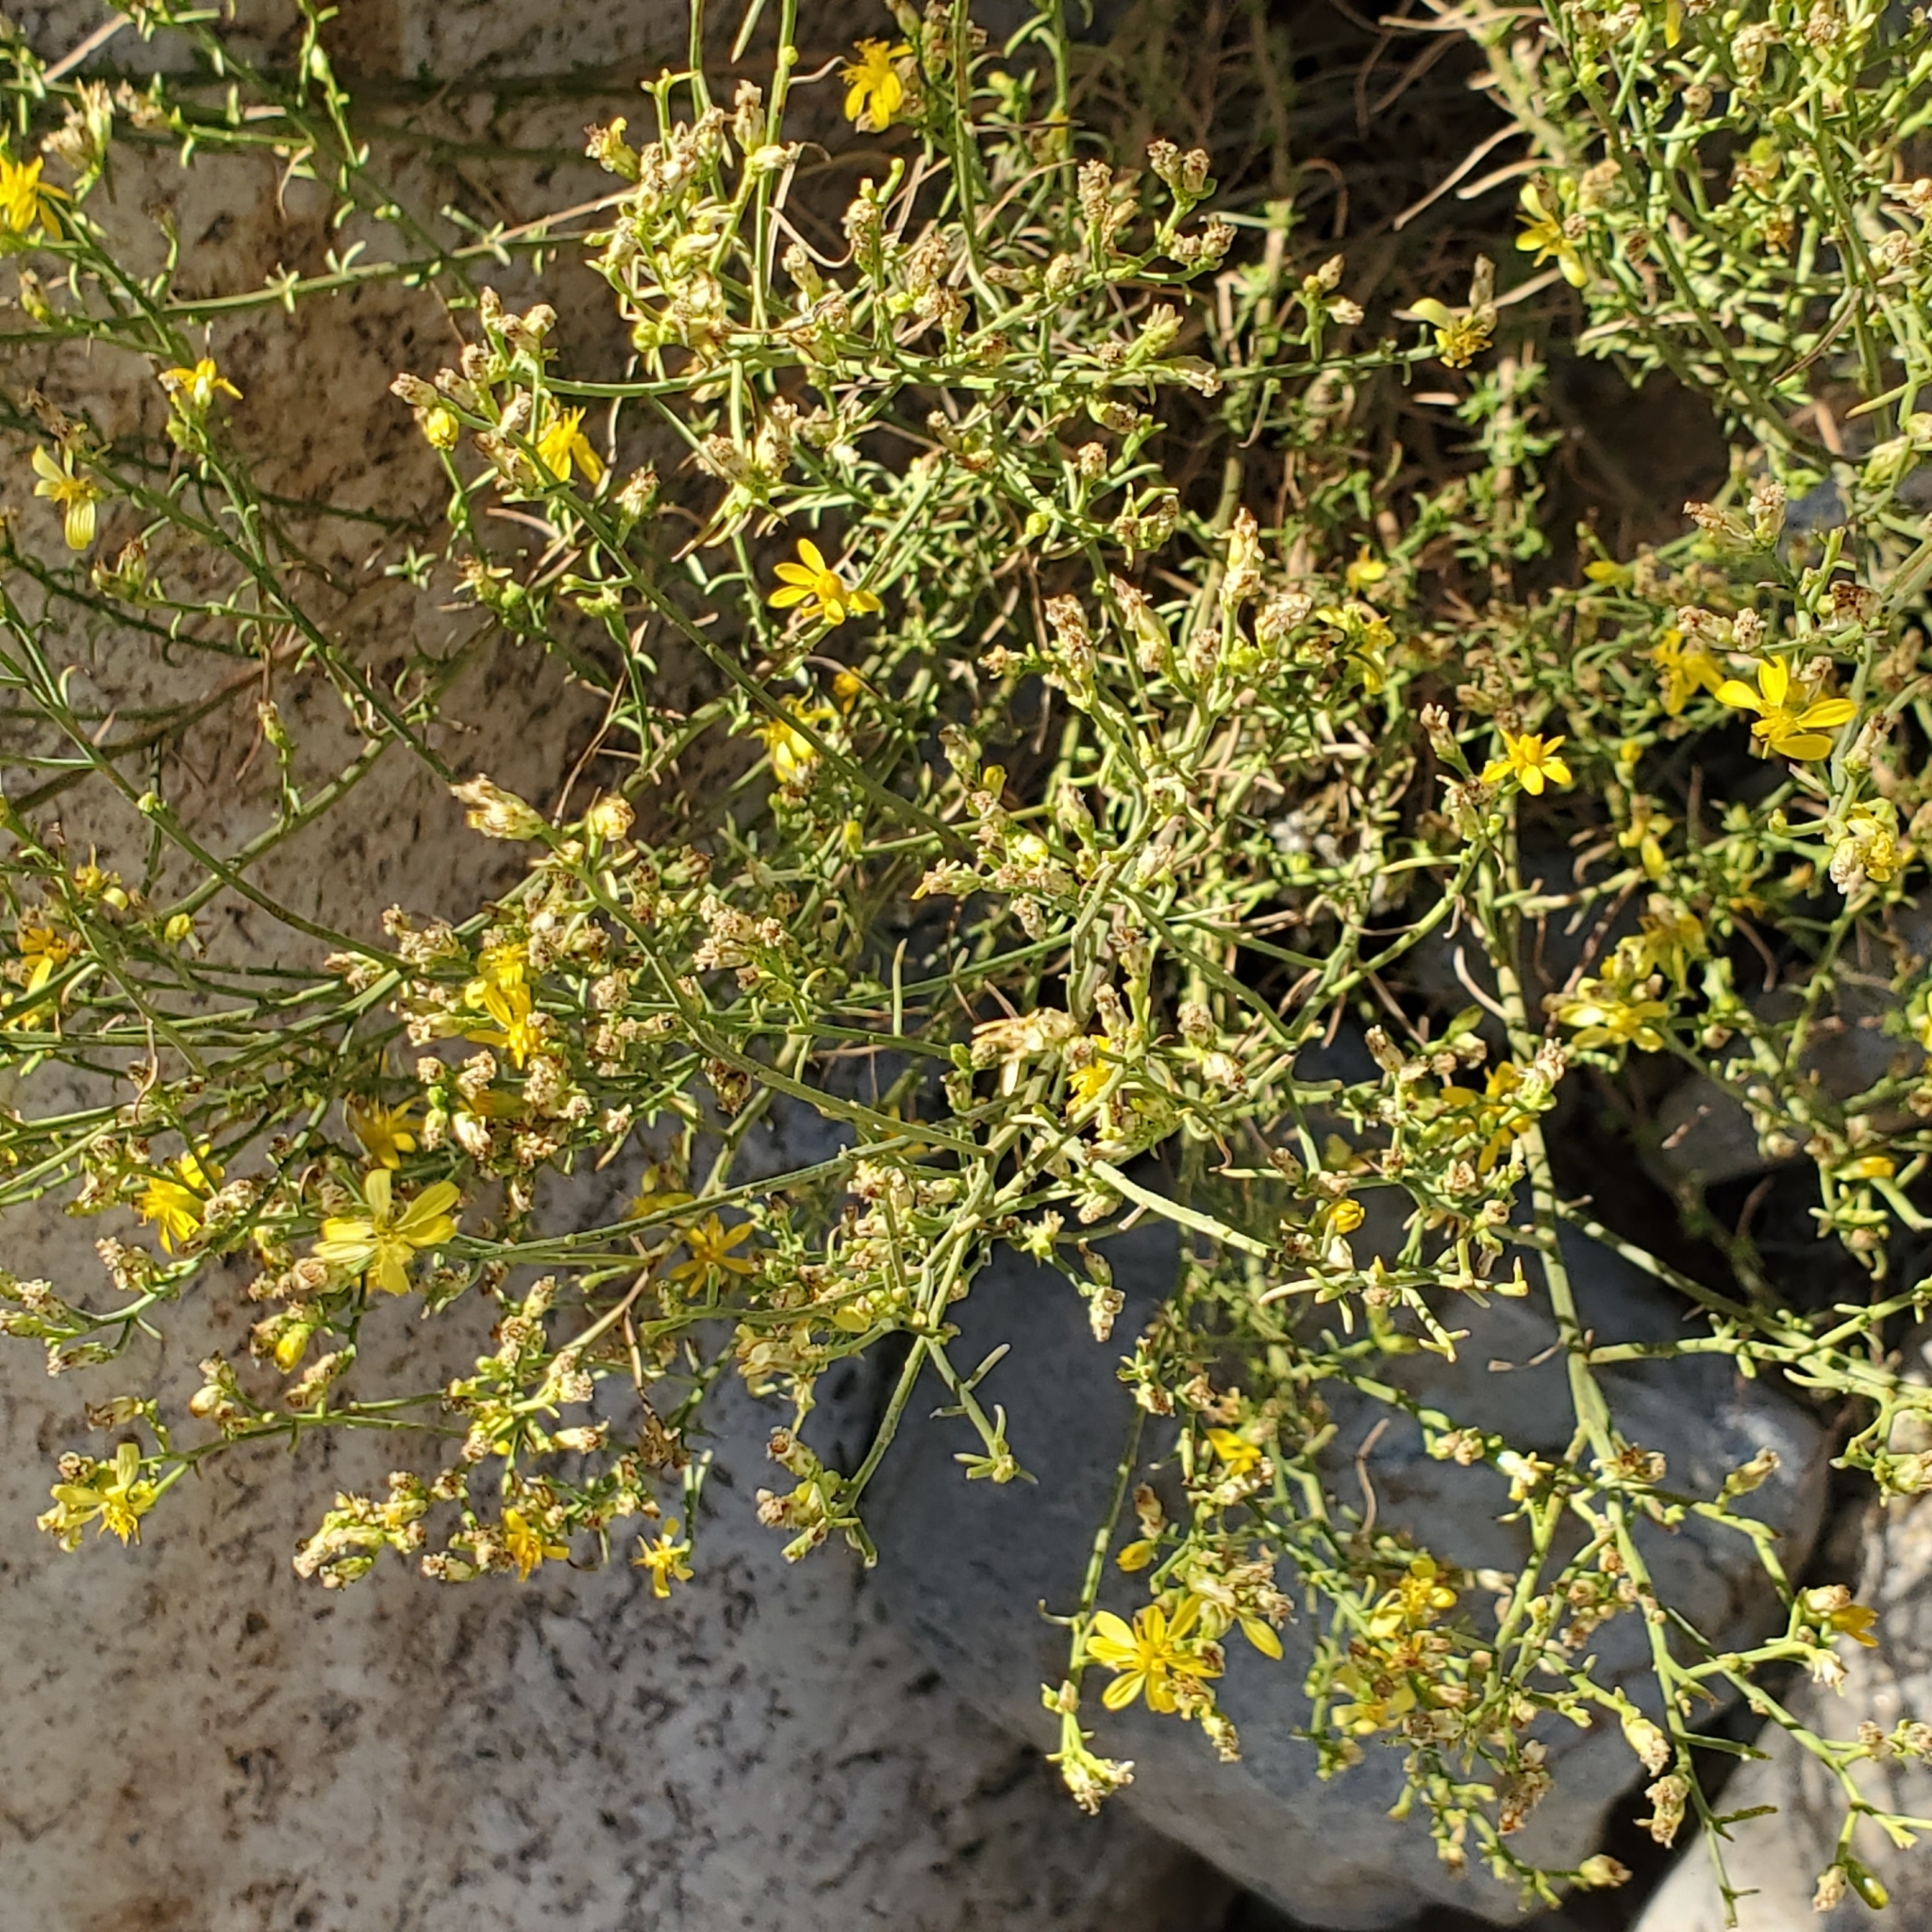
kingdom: Plantae
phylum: Tracheophyta
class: Magnoliopsida
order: Asterales
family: Asteraceae
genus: Gutierrezia
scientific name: Gutierrezia sarothrae
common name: Broom snakeweed
